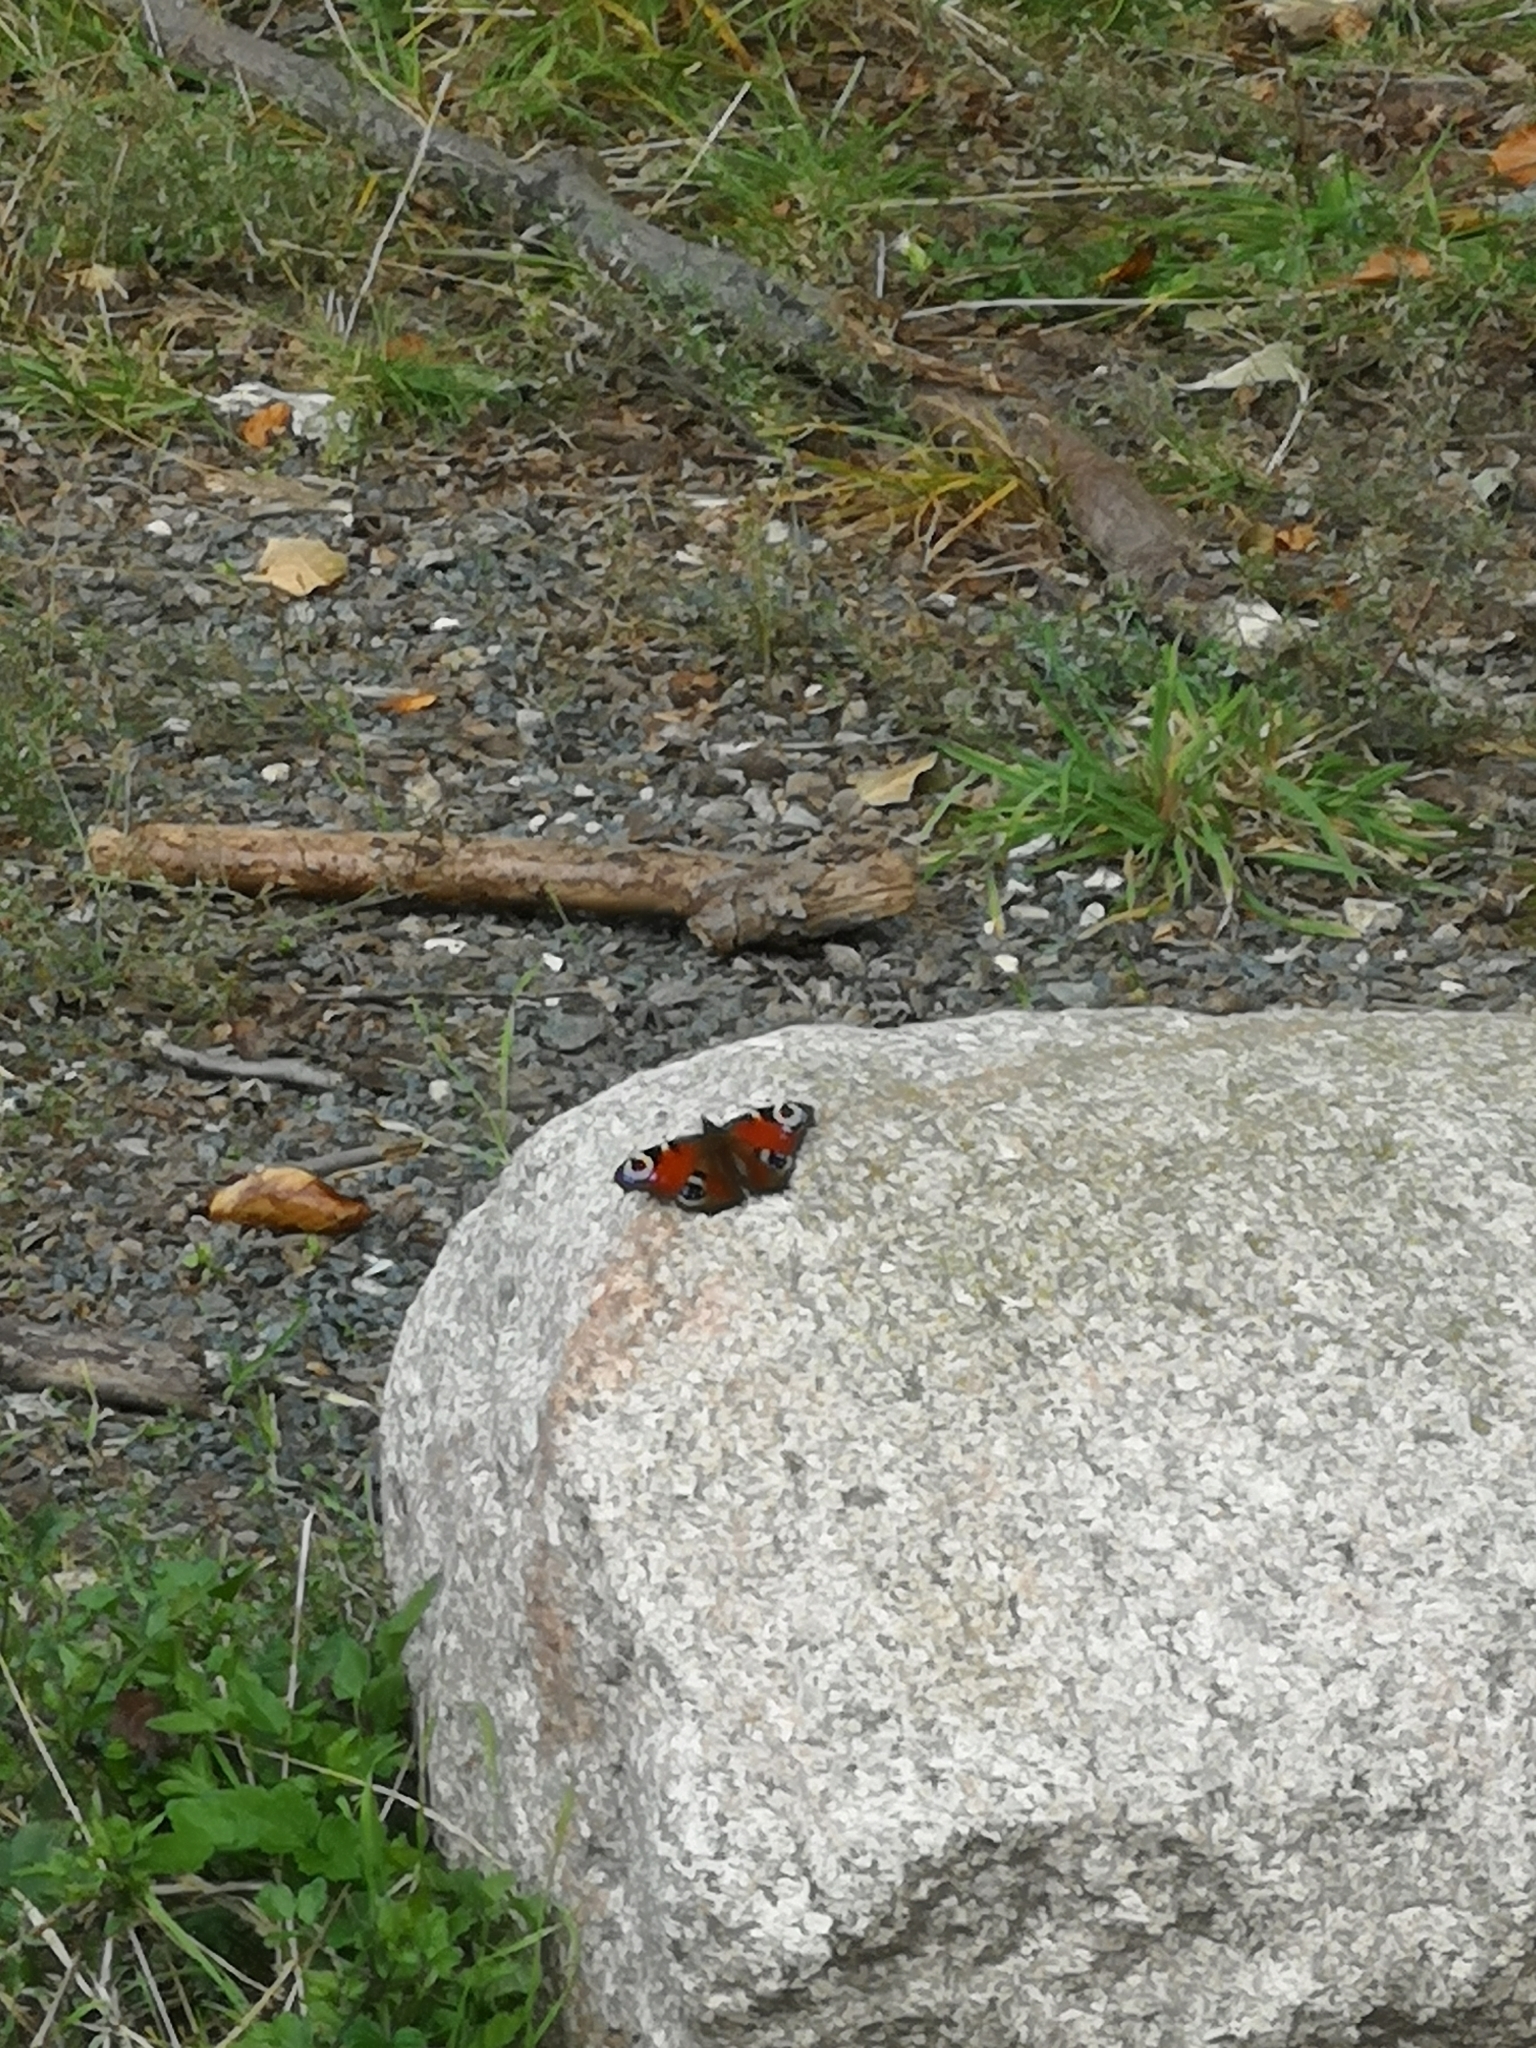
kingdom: Animalia
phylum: Arthropoda
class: Insecta
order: Lepidoptera
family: Nymphalidae
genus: Aglais
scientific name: Aglais io
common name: Peacock
